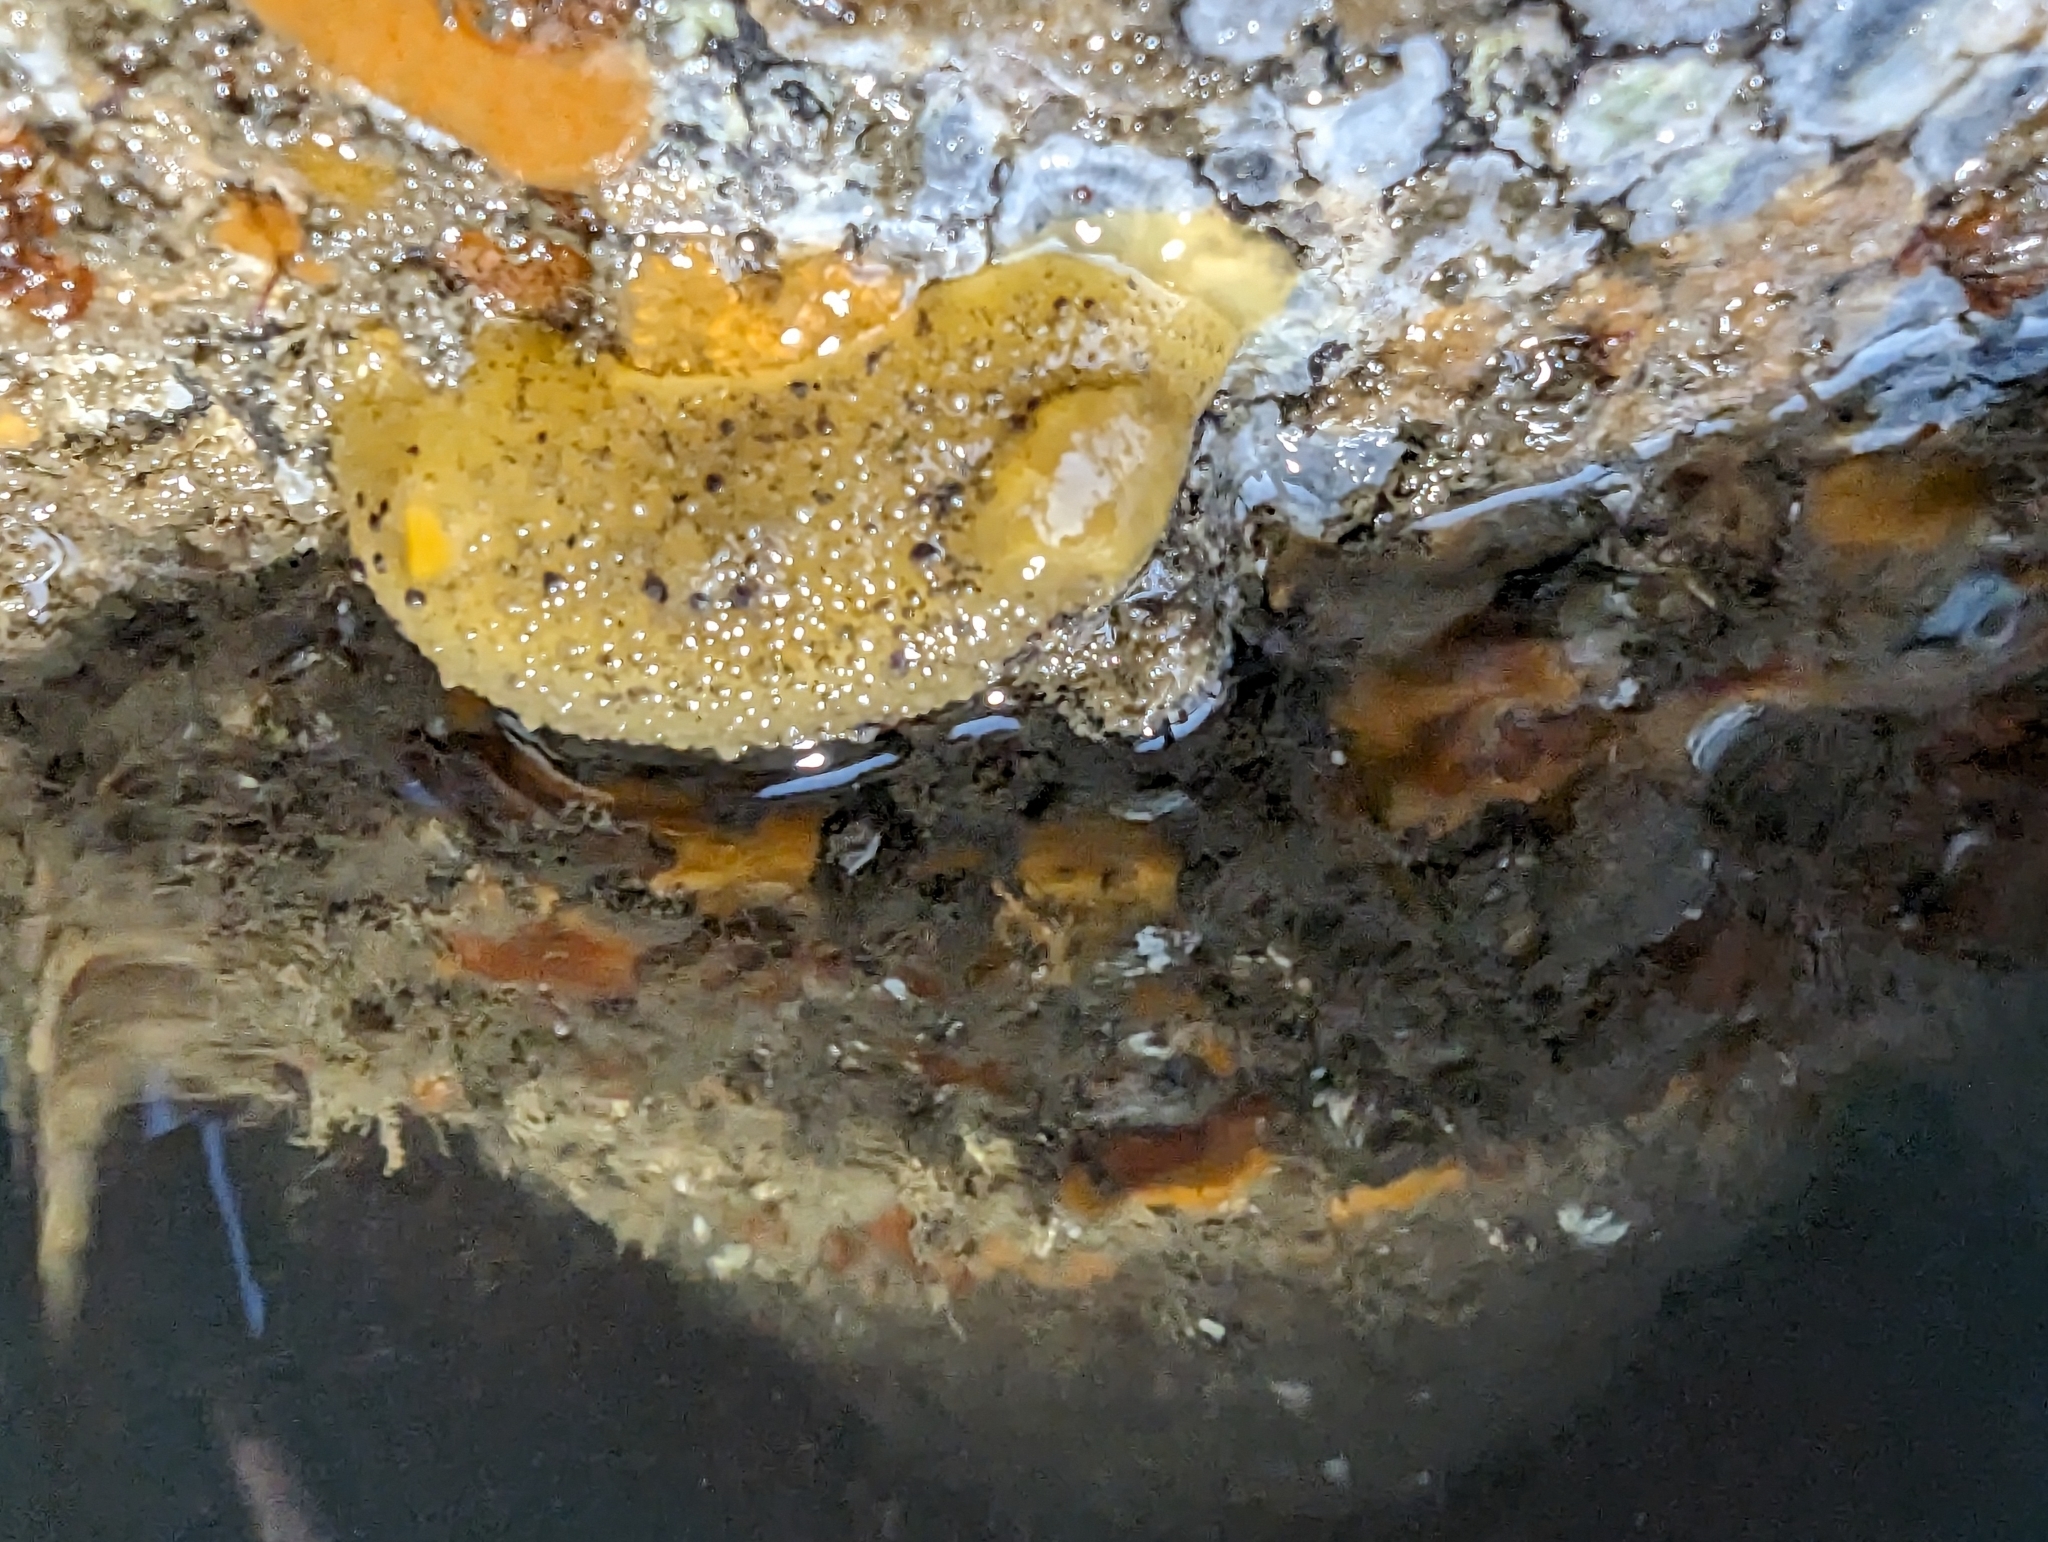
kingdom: Animalia
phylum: Mollusca
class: Gastropoda
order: Nudibranchia
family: Dorididae
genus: Doris
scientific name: Doris montereyensis
